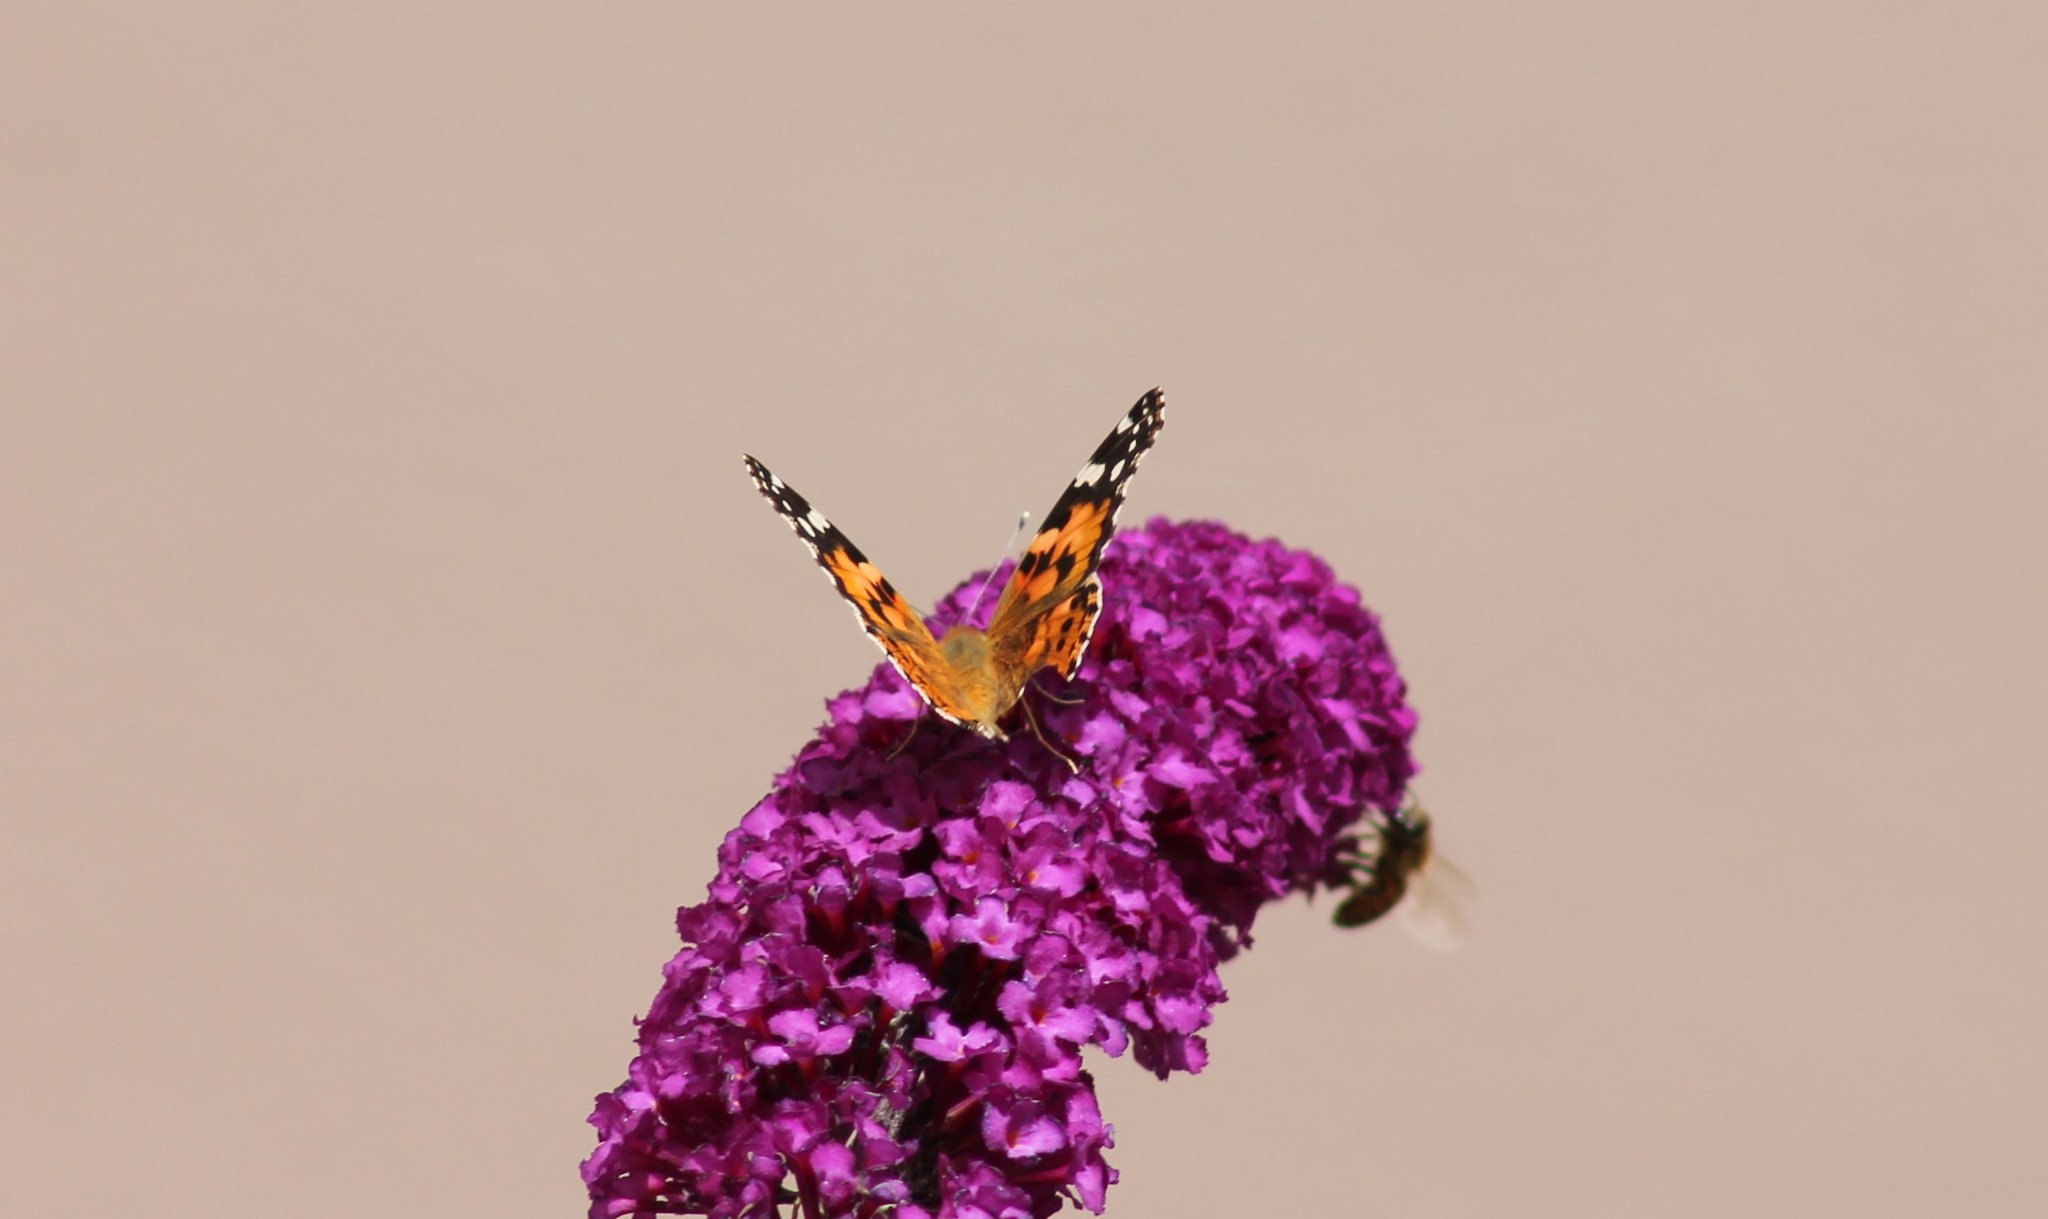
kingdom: Animalia
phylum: Arthropoda
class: Insecta
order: Lepidoptera
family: Nymphalidae
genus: Vanessa
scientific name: Vanessa cardui
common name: Painted lady
